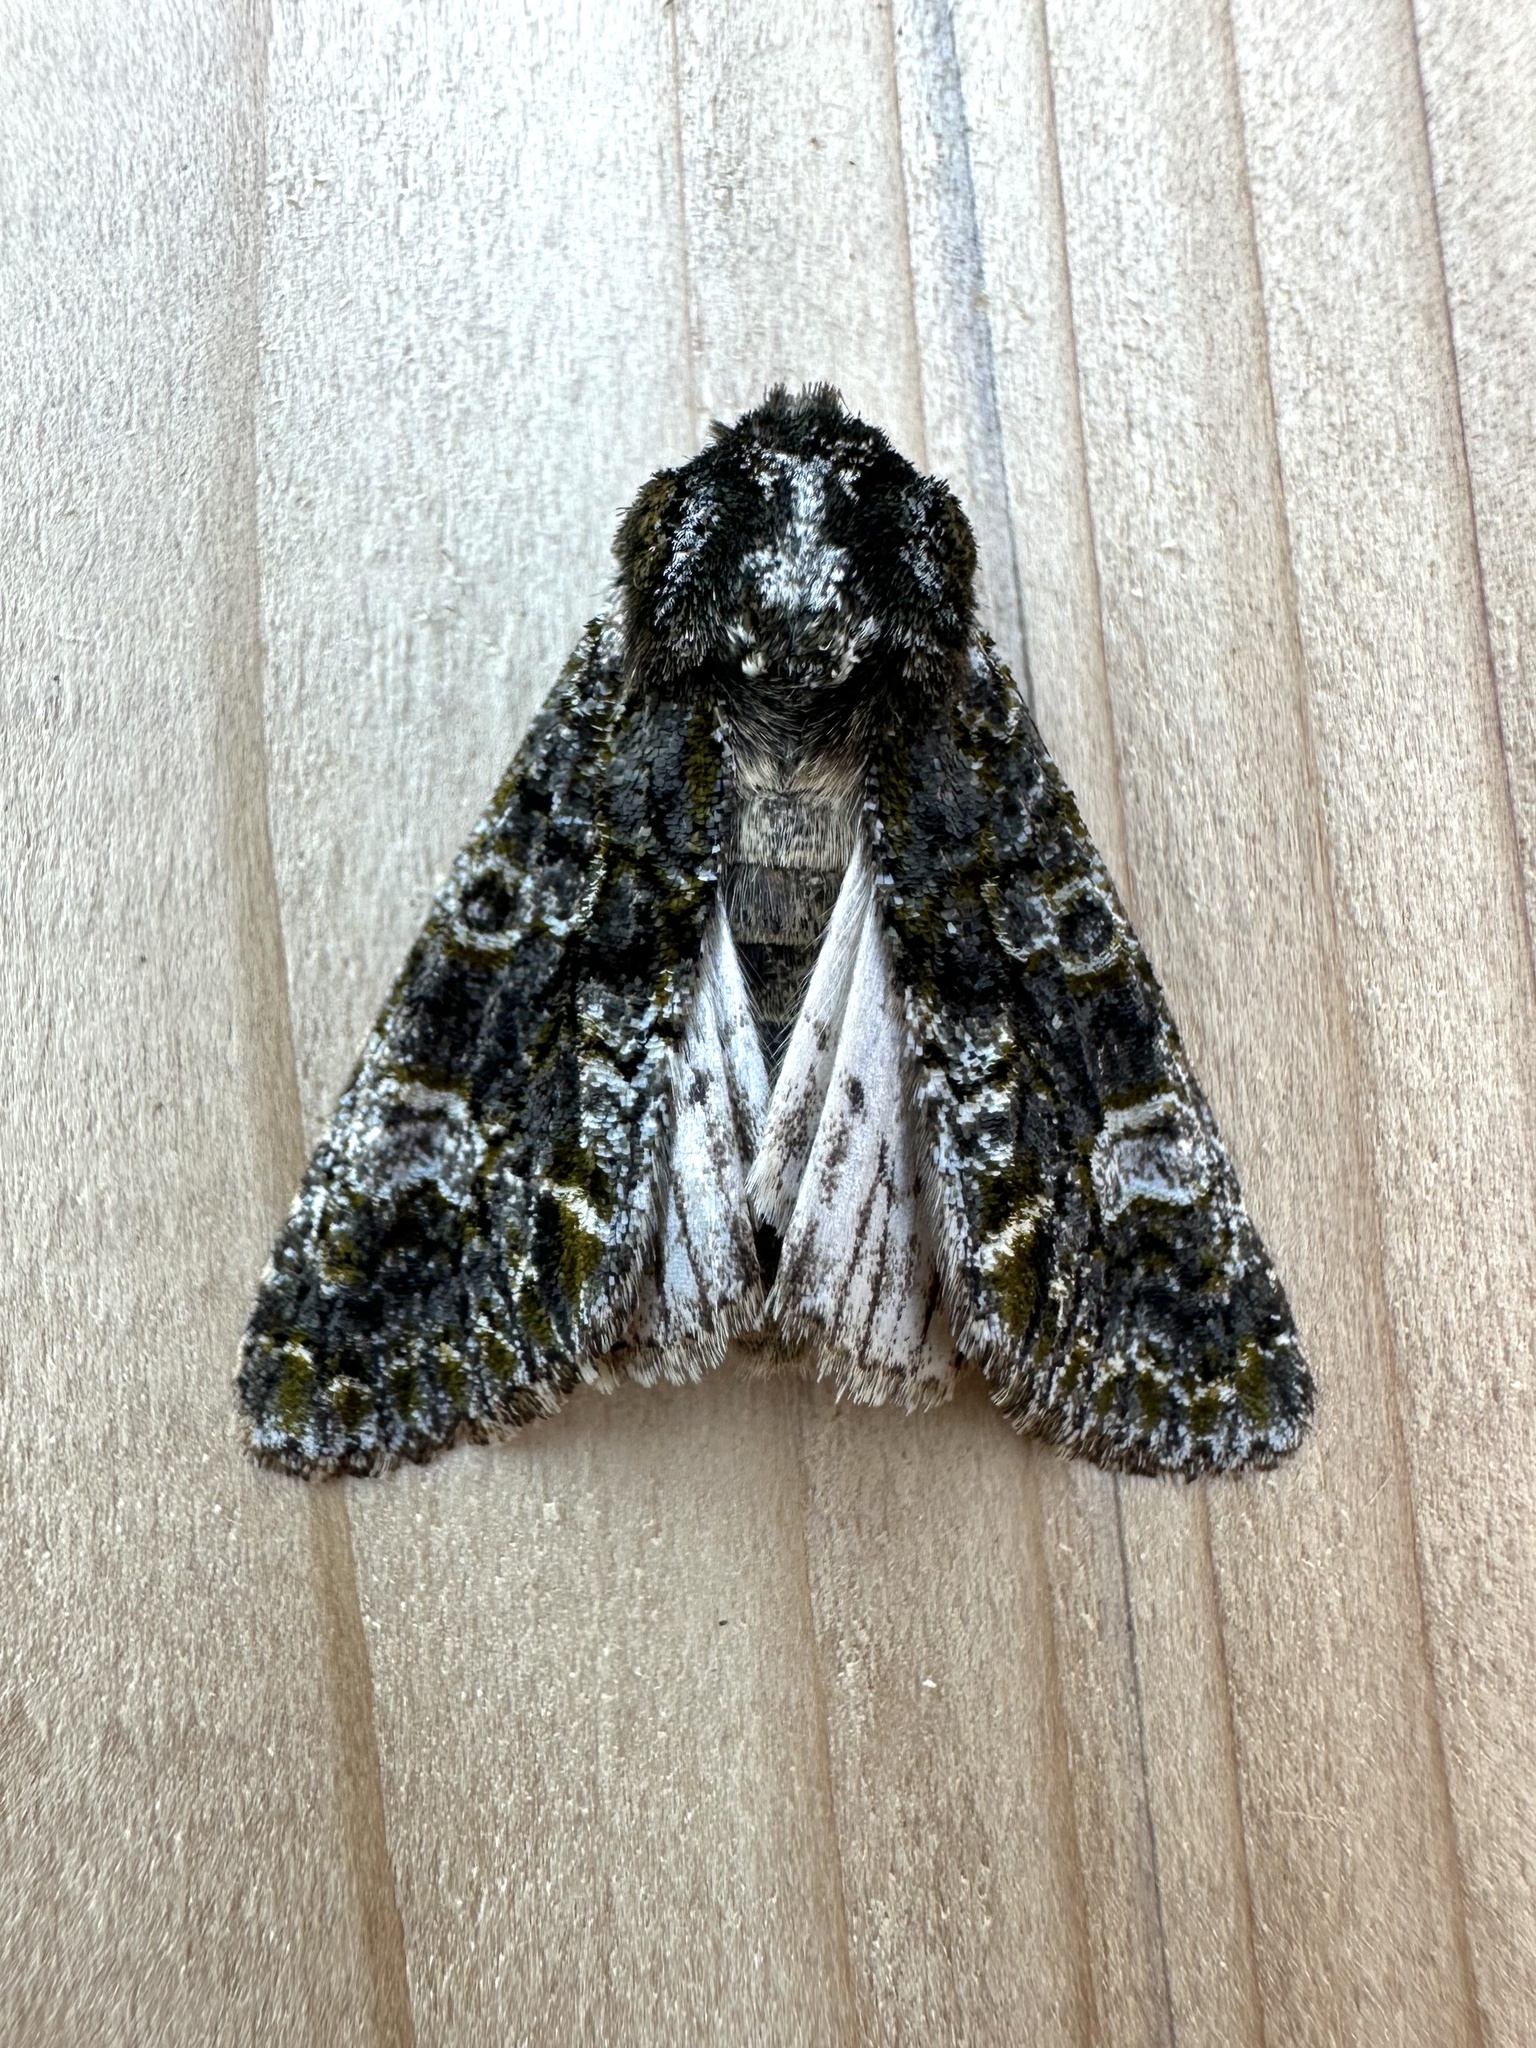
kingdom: Animalia
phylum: Arthropoda
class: Insecta
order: Lepidoptera
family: Noctuidae
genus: Psaphida
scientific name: Psaphida grotei
